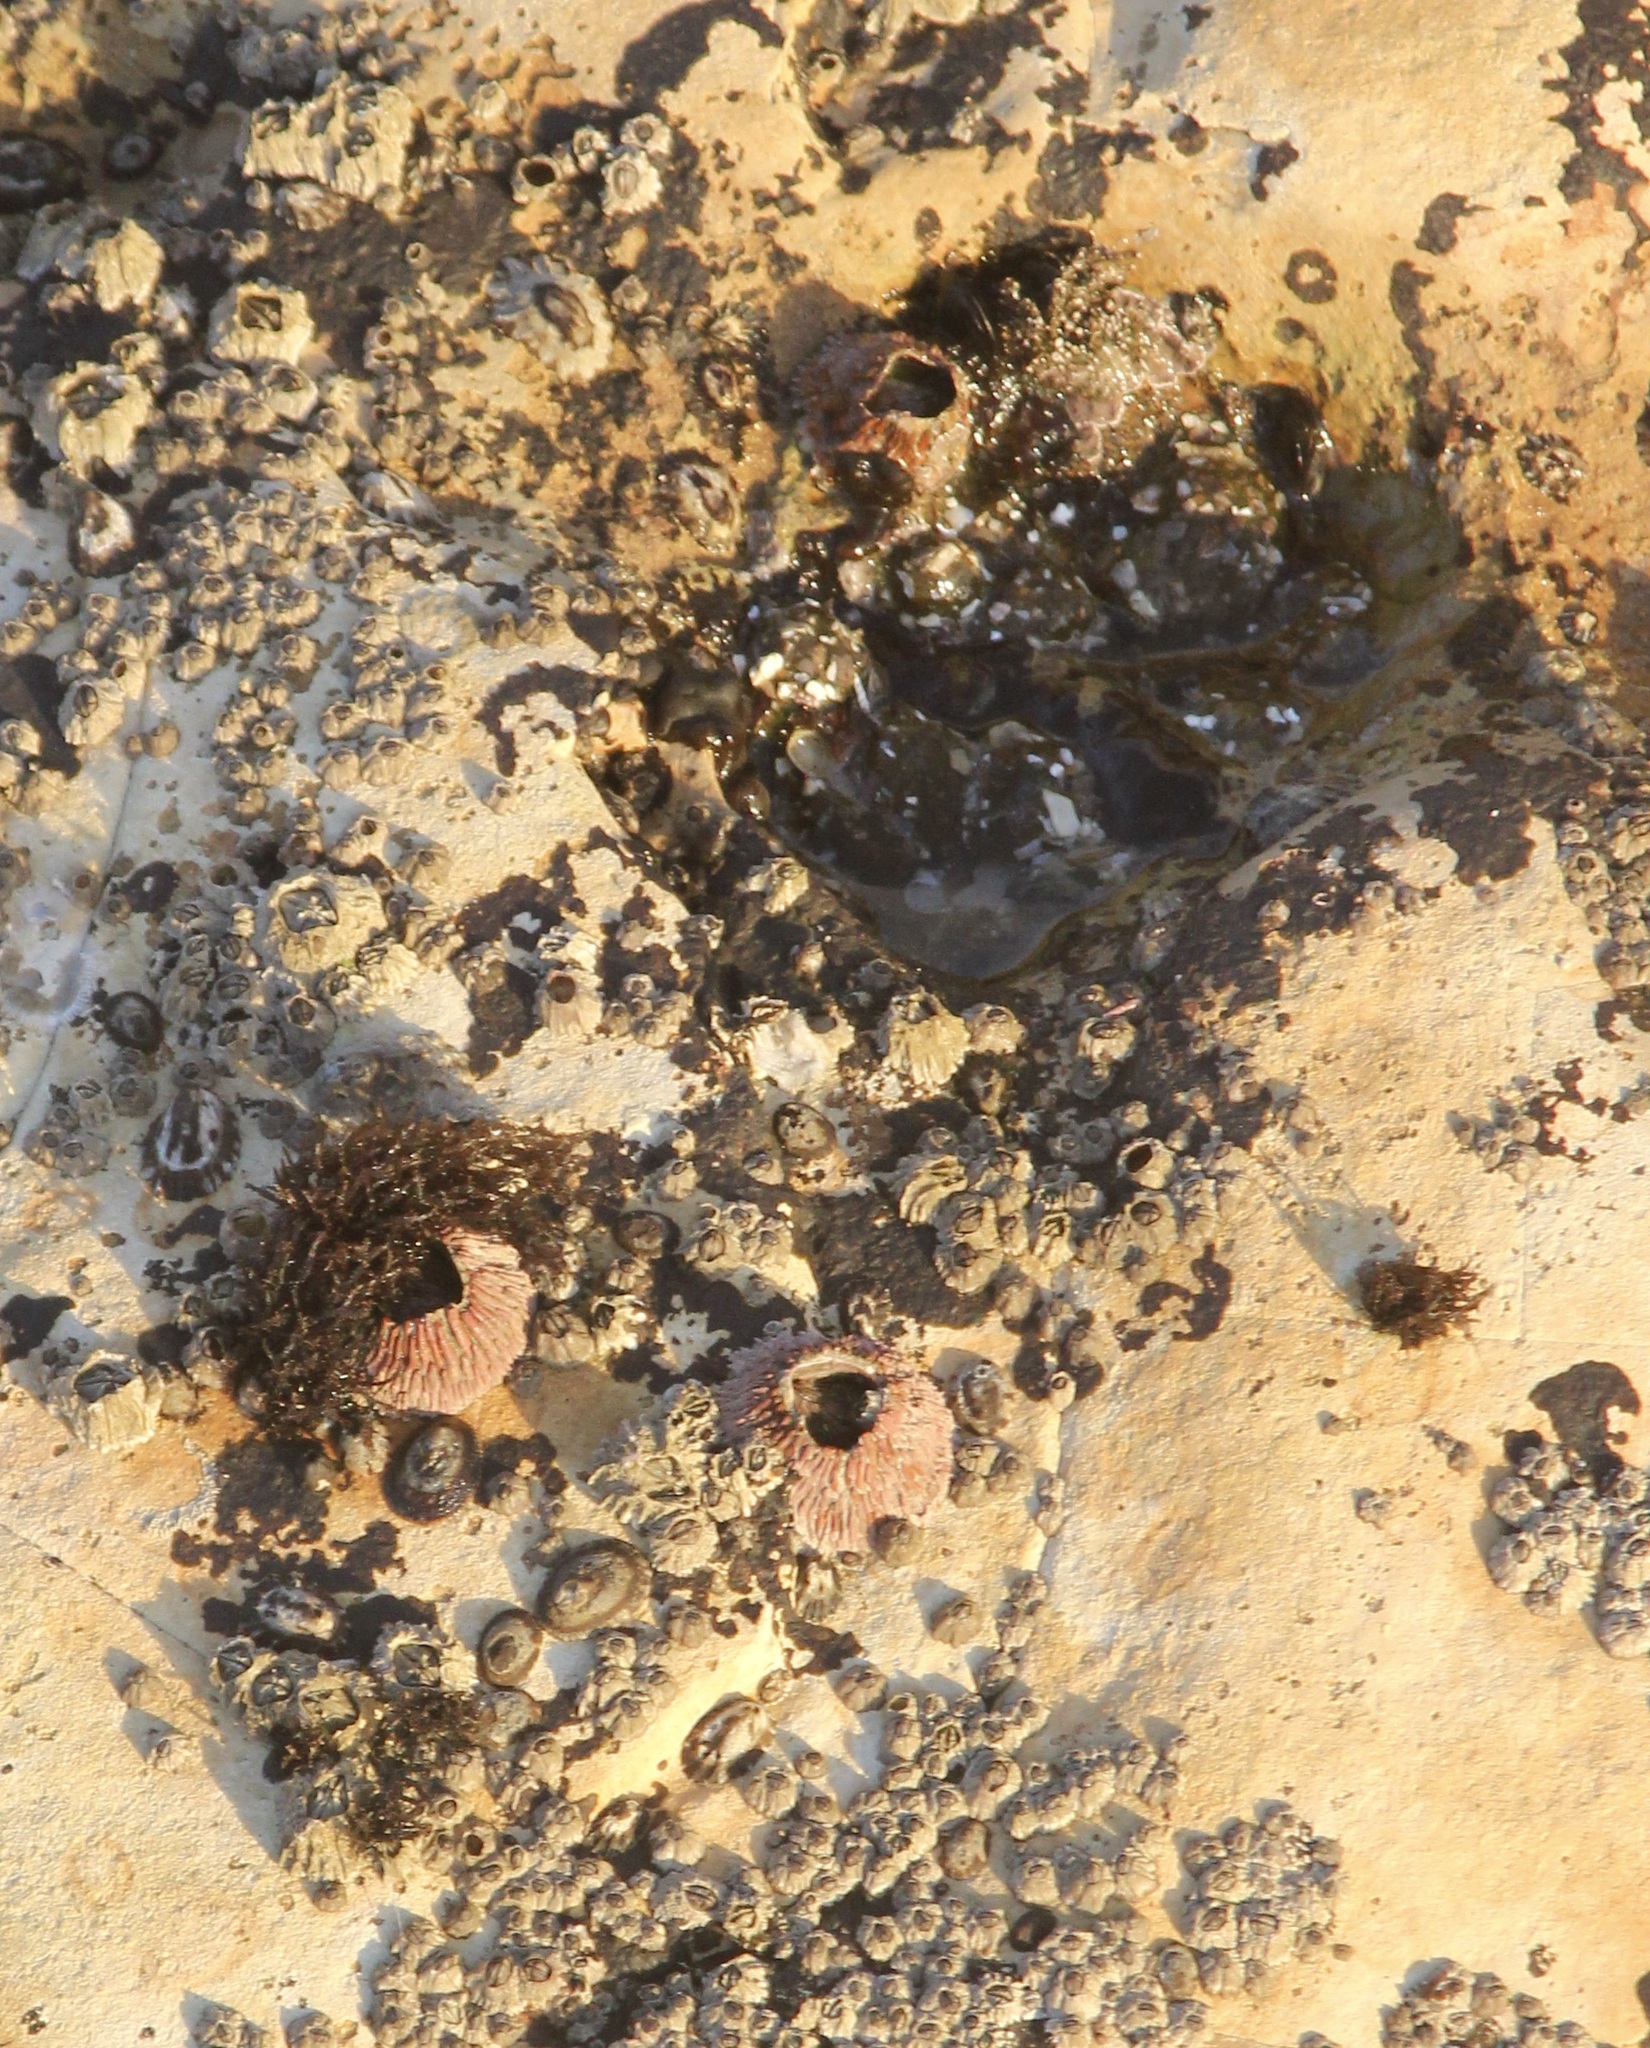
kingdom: Animalia
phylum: Arthropoda
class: Maxillopoda
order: Sessilia
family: Tetraclitidae
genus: Tetraclita
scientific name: Tetraclita rubescens
